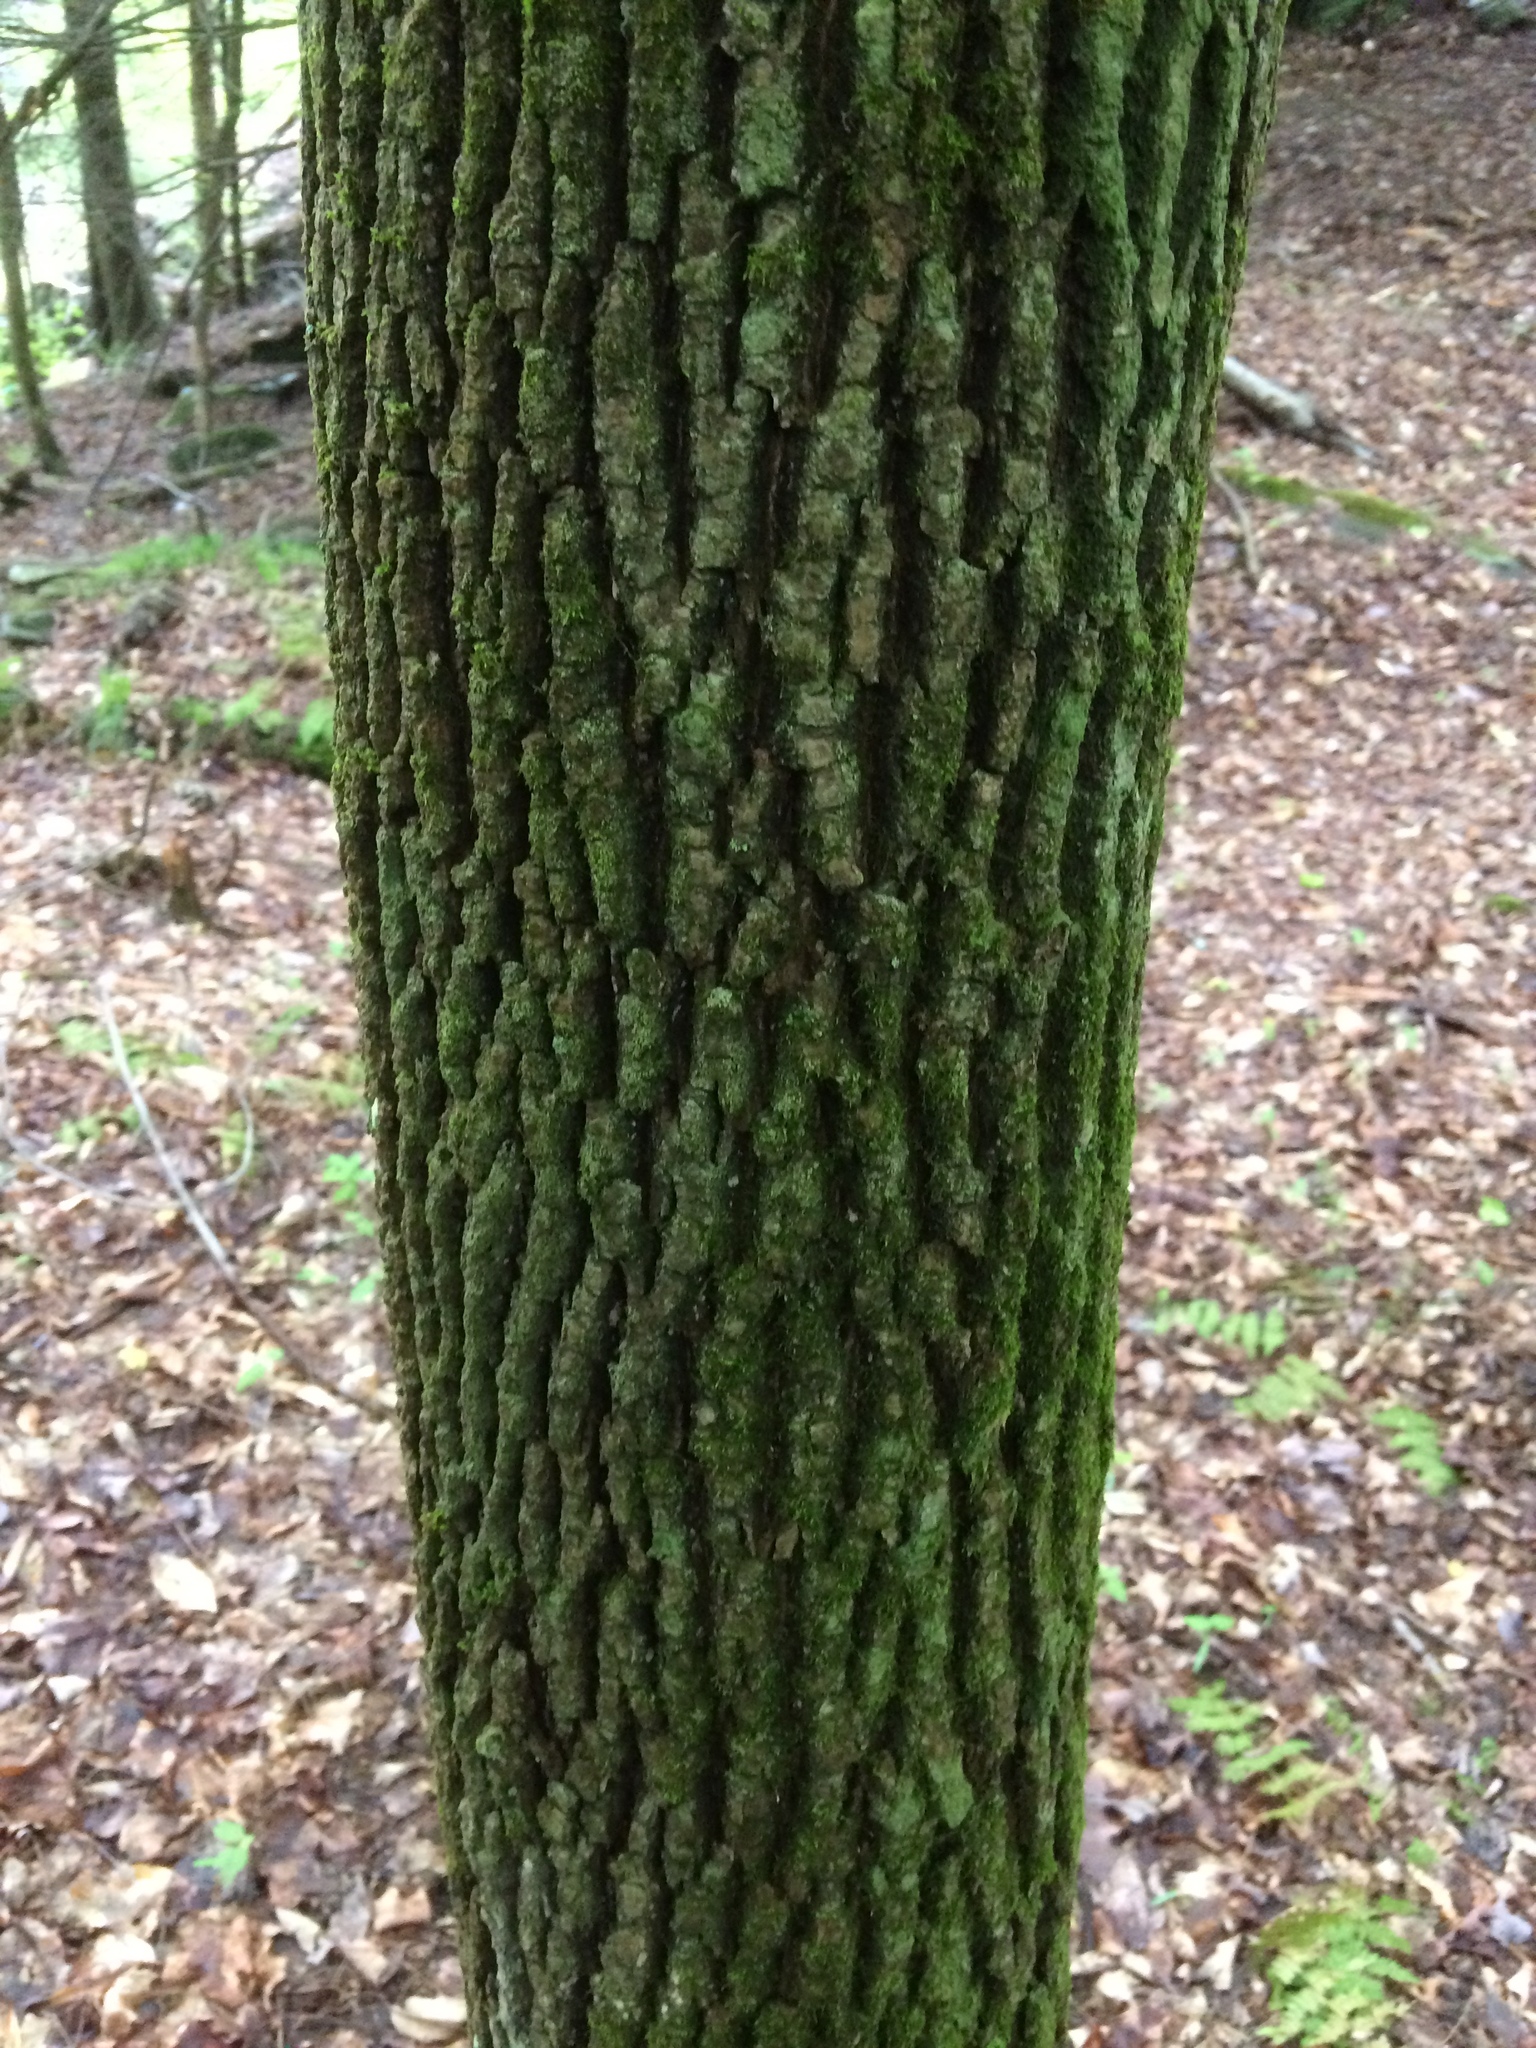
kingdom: Plantae
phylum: Tracheophyta
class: Magnoliopsida
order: Lamiales
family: Oleaceae
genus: Fraxinus
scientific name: Fraxinus americana
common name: White ash
